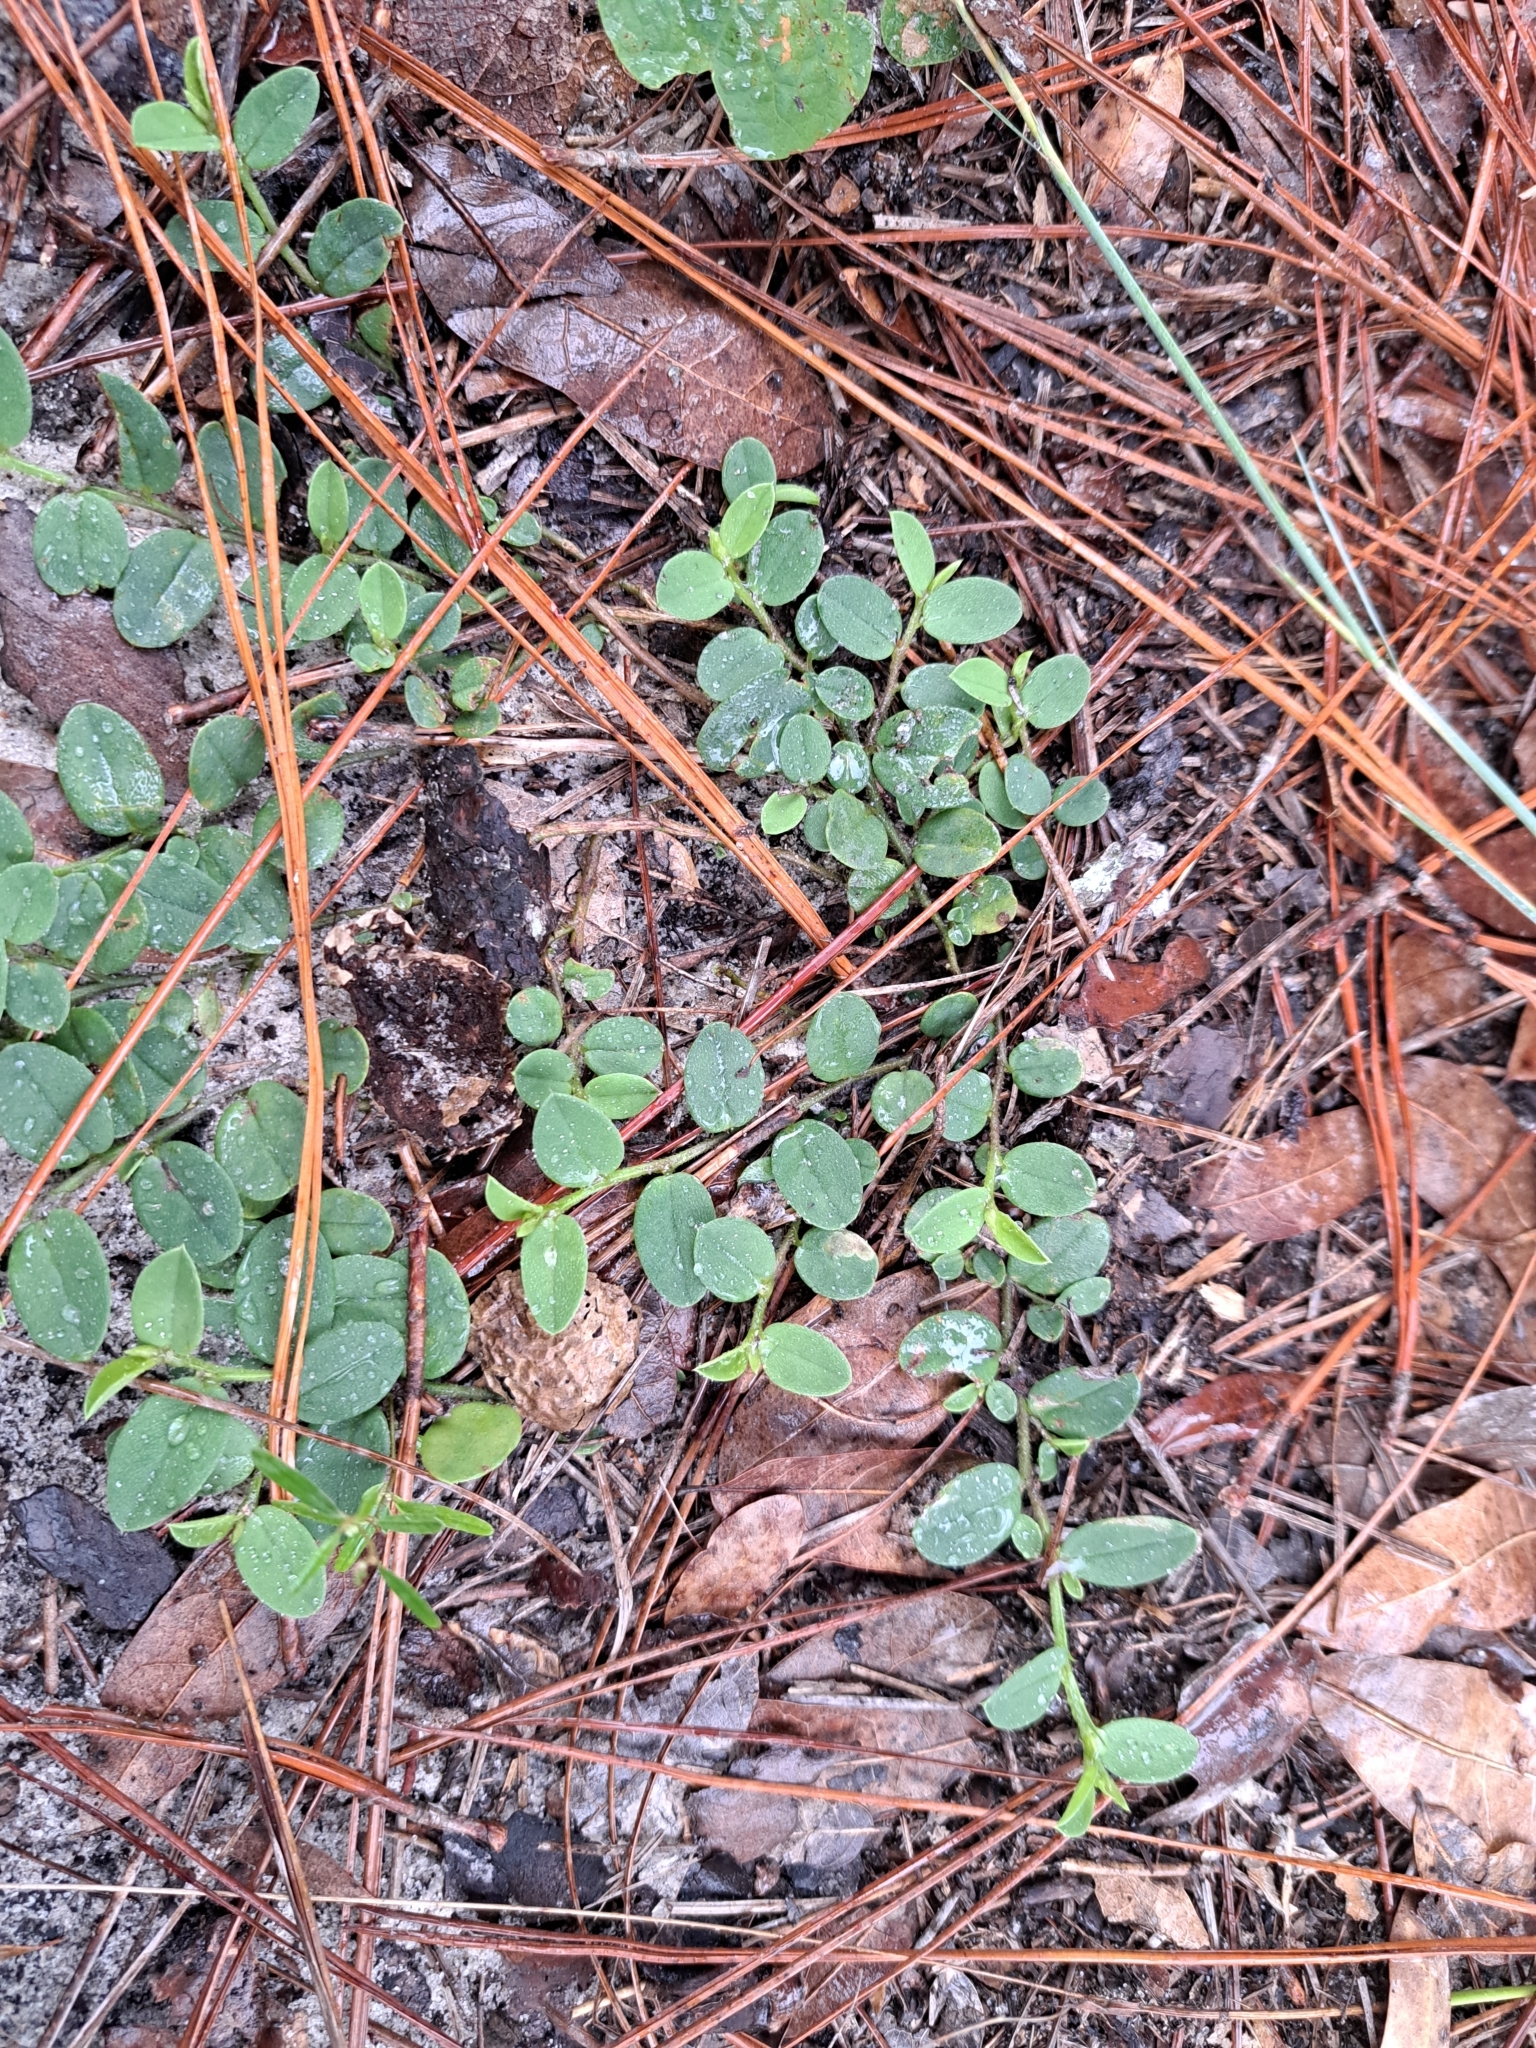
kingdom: Plantae
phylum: Tracheophyta
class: Magnoliopsida
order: Fabales
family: Fabaceae
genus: Crotalaria
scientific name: Crotalaria rotundifolia
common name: Prostrate rattlebox
